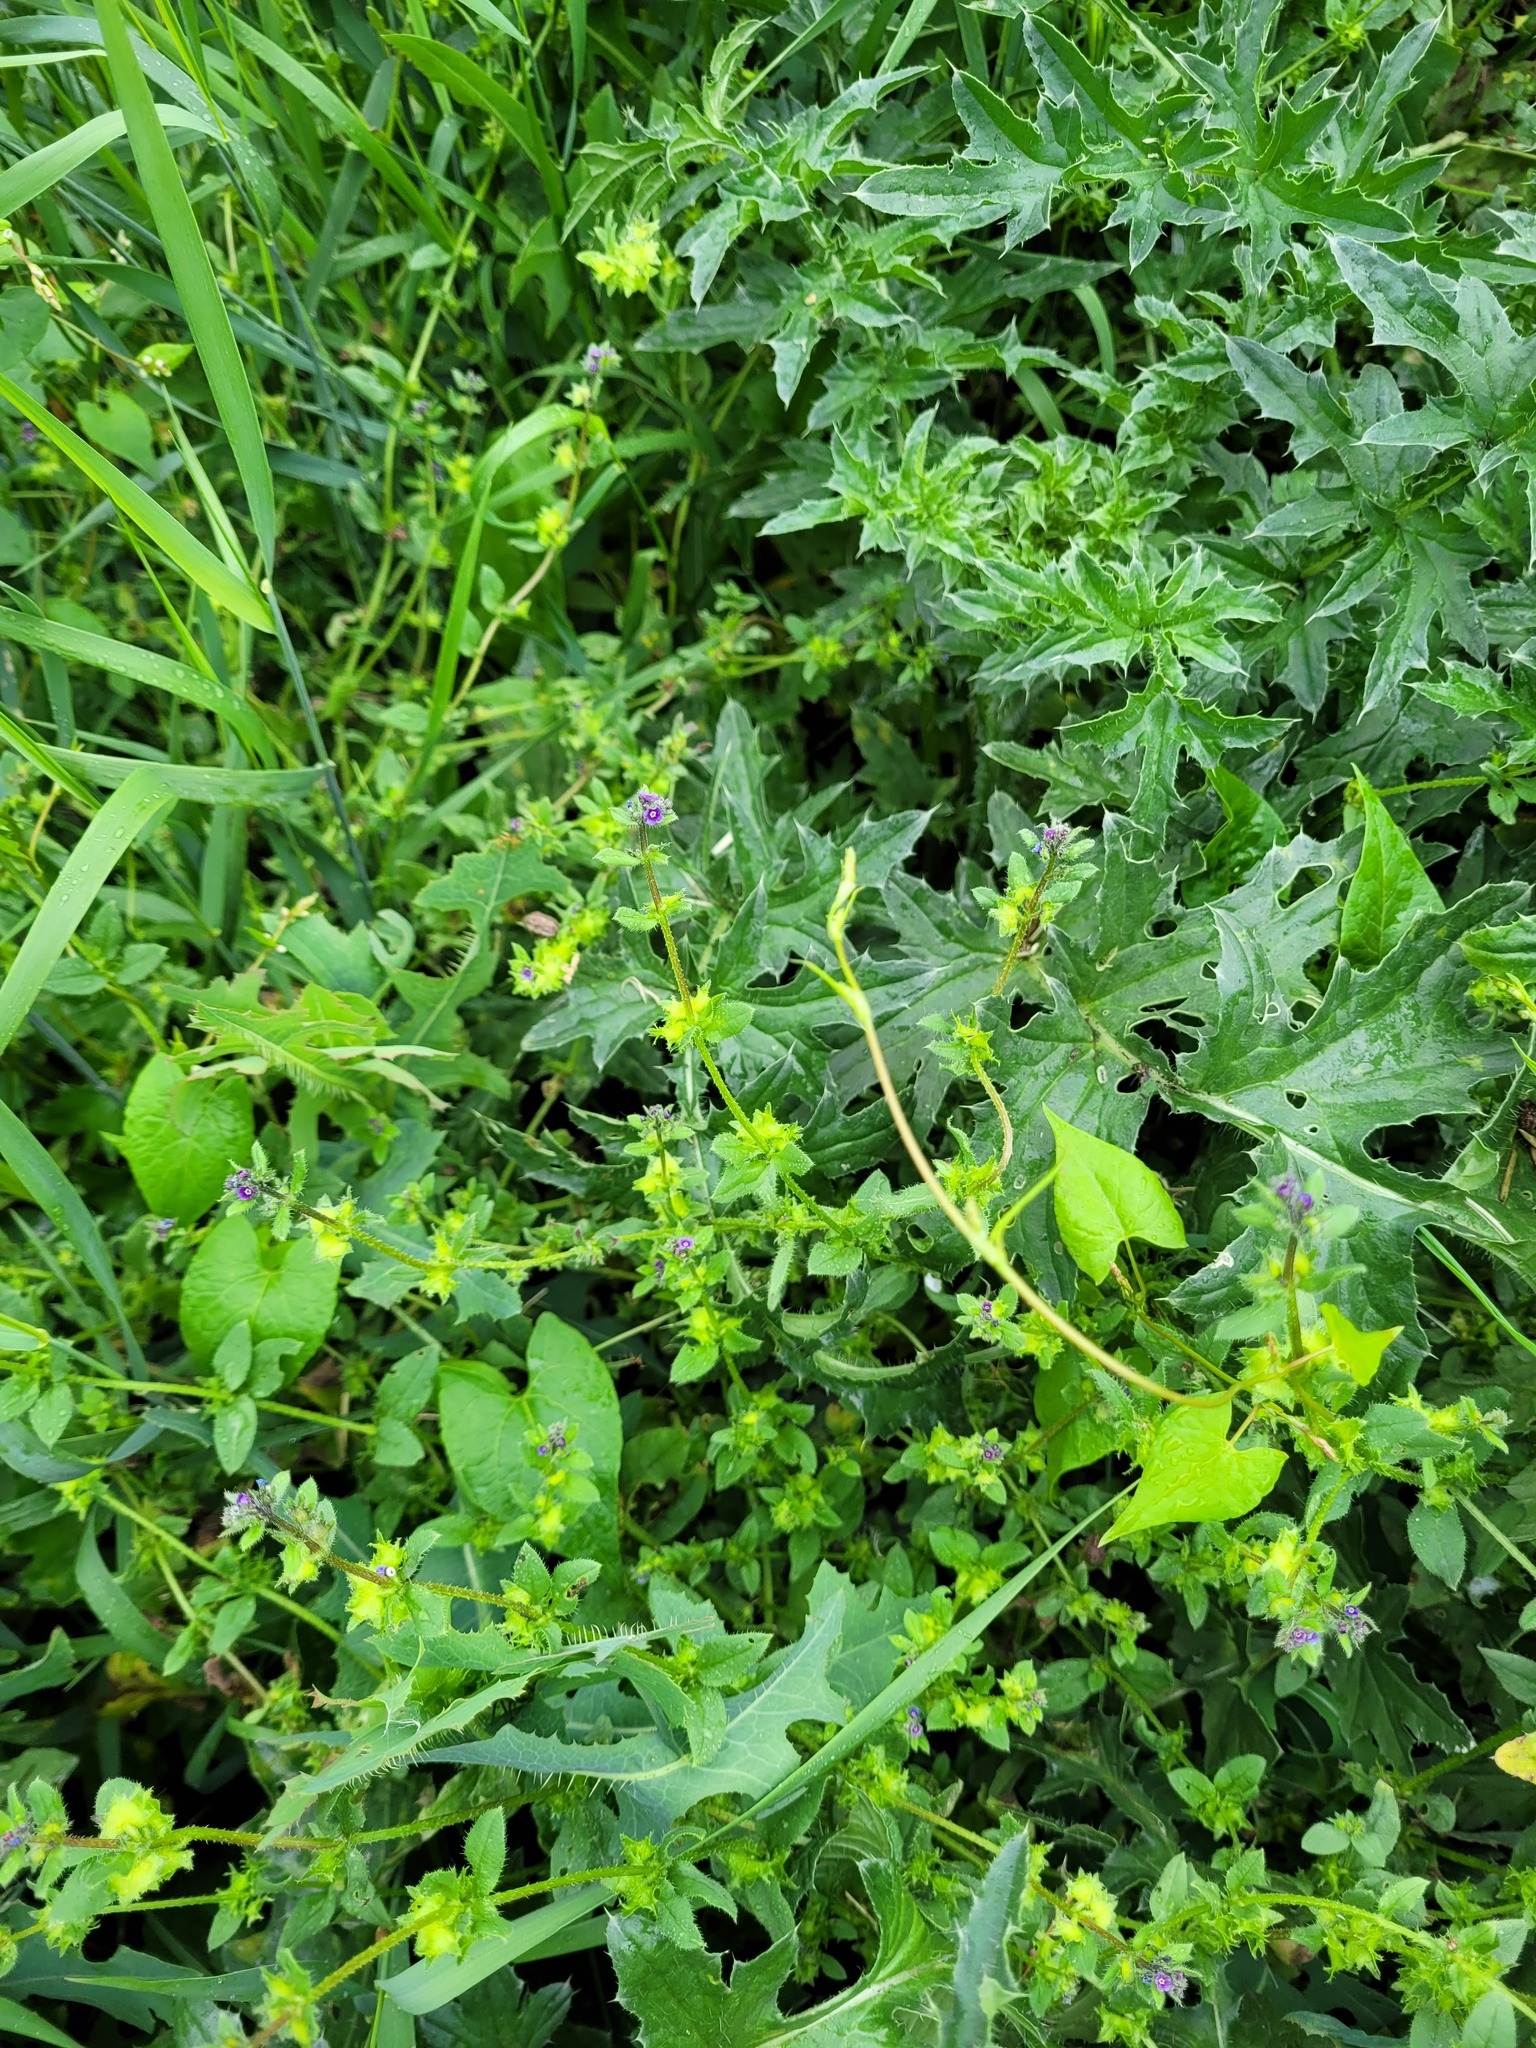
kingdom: Plantae
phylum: Tracheophyta
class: Magnoliopsida
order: Boraginales
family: Boraginaceae
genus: Asperugo
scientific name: Asperugo procumbens
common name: Madwort
